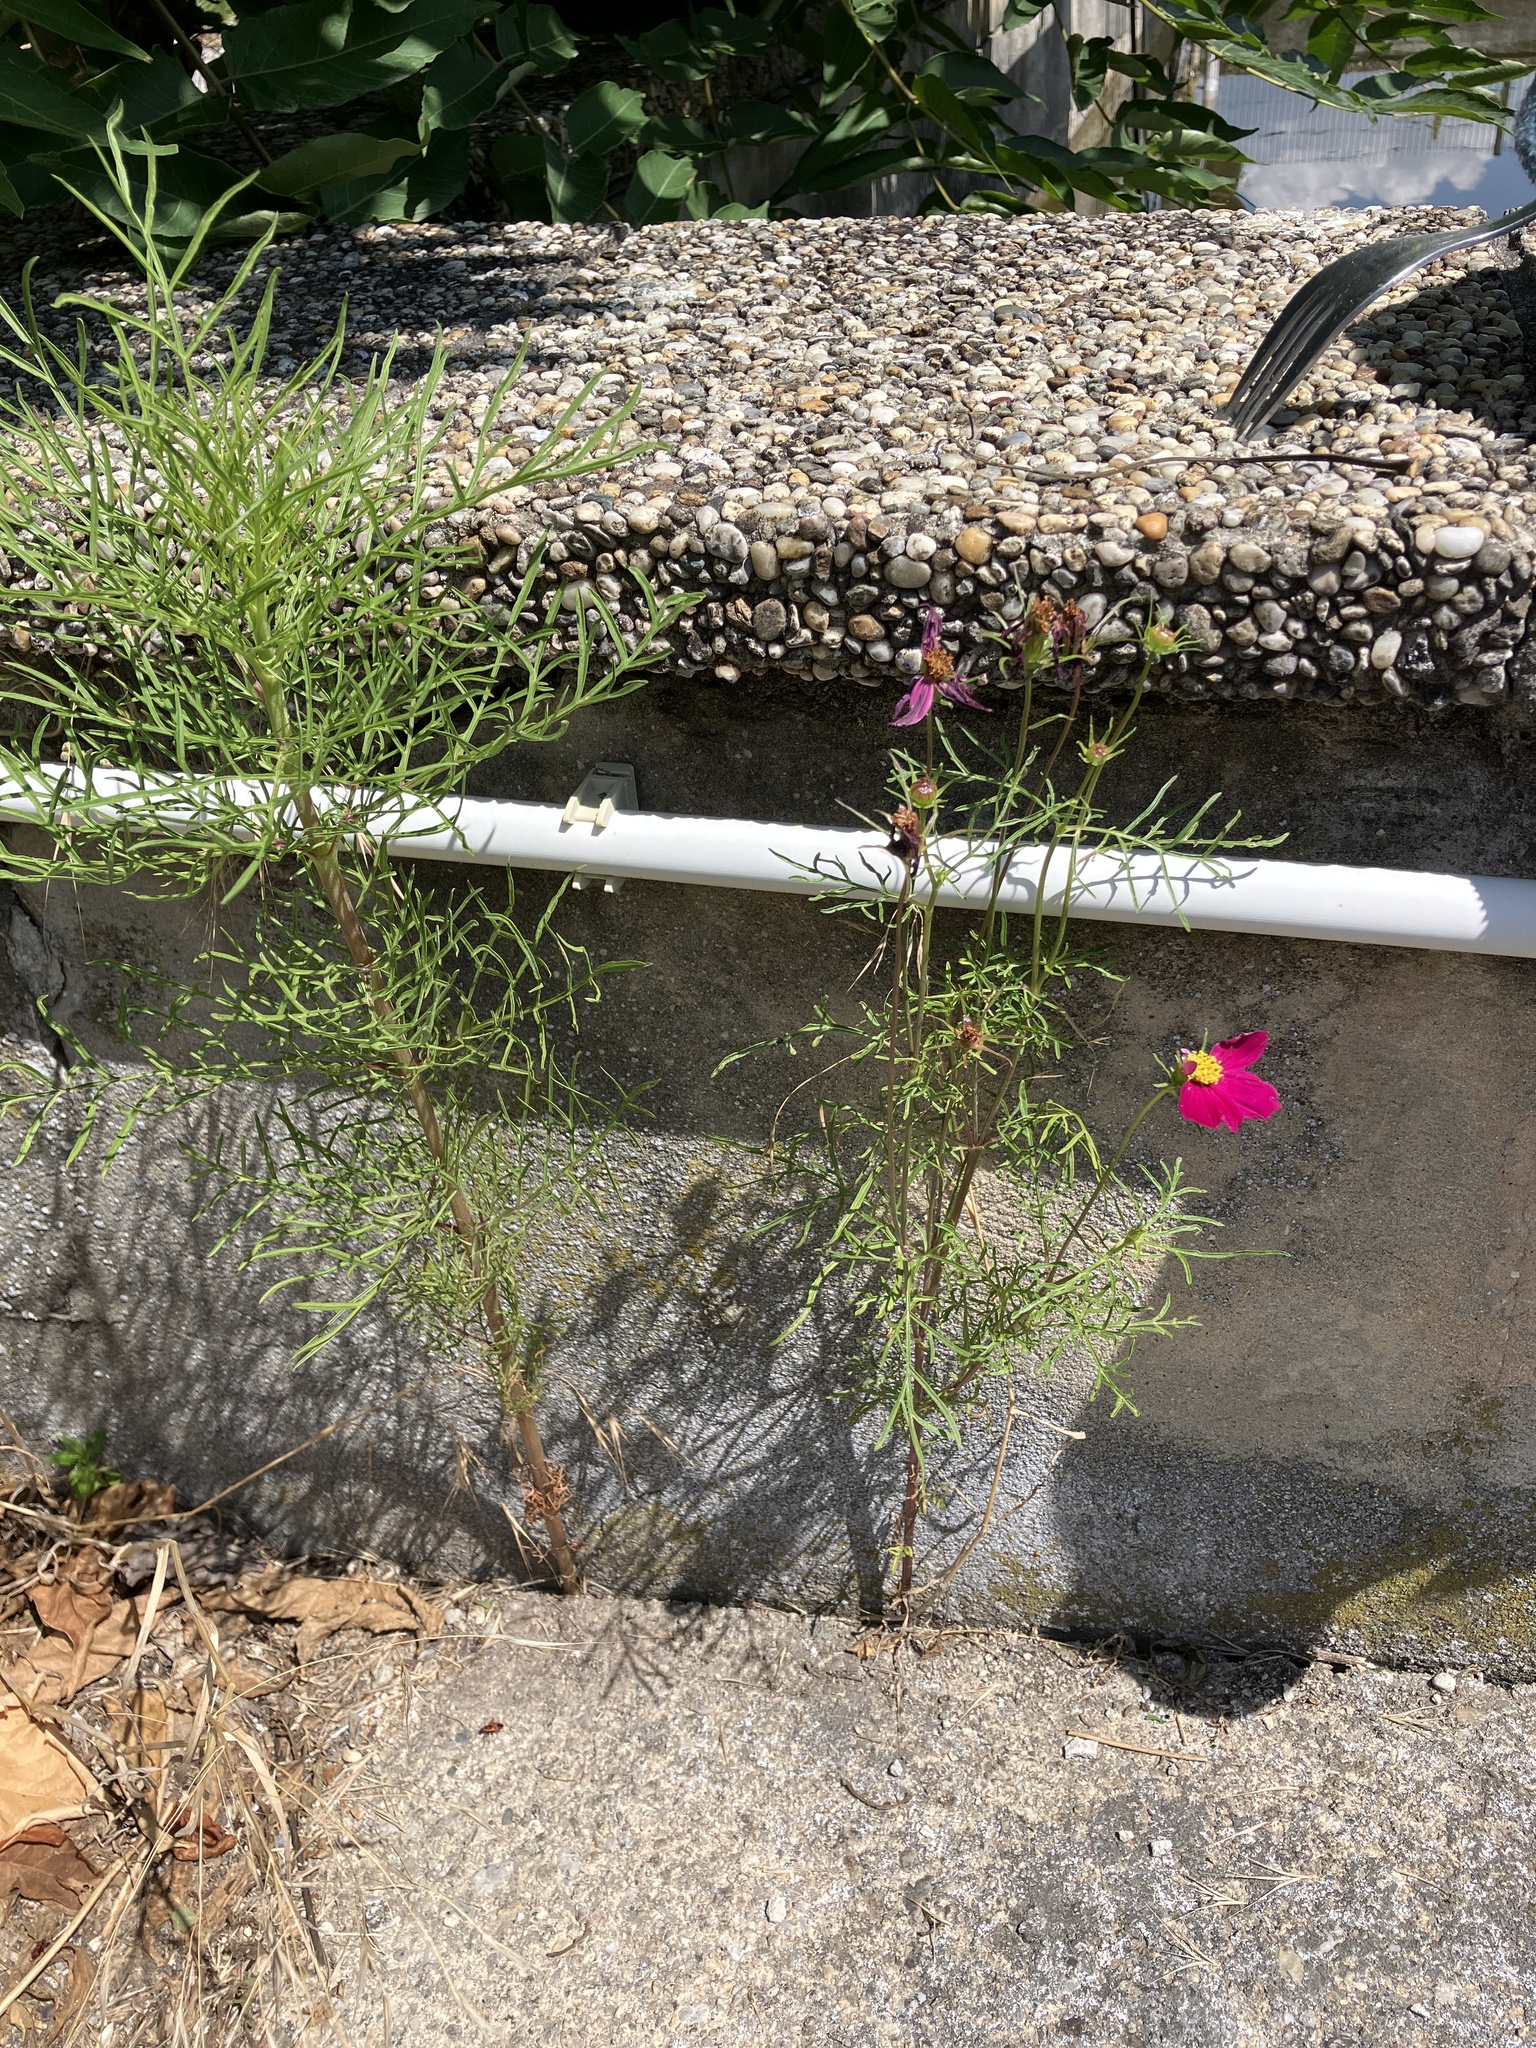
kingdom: Plantae
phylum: Tracheophyta
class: Magnoliopsida
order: Asterales
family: Asteraceae
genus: Cosmos
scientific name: Cosmos bipinnatus
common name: Garden cosmos
